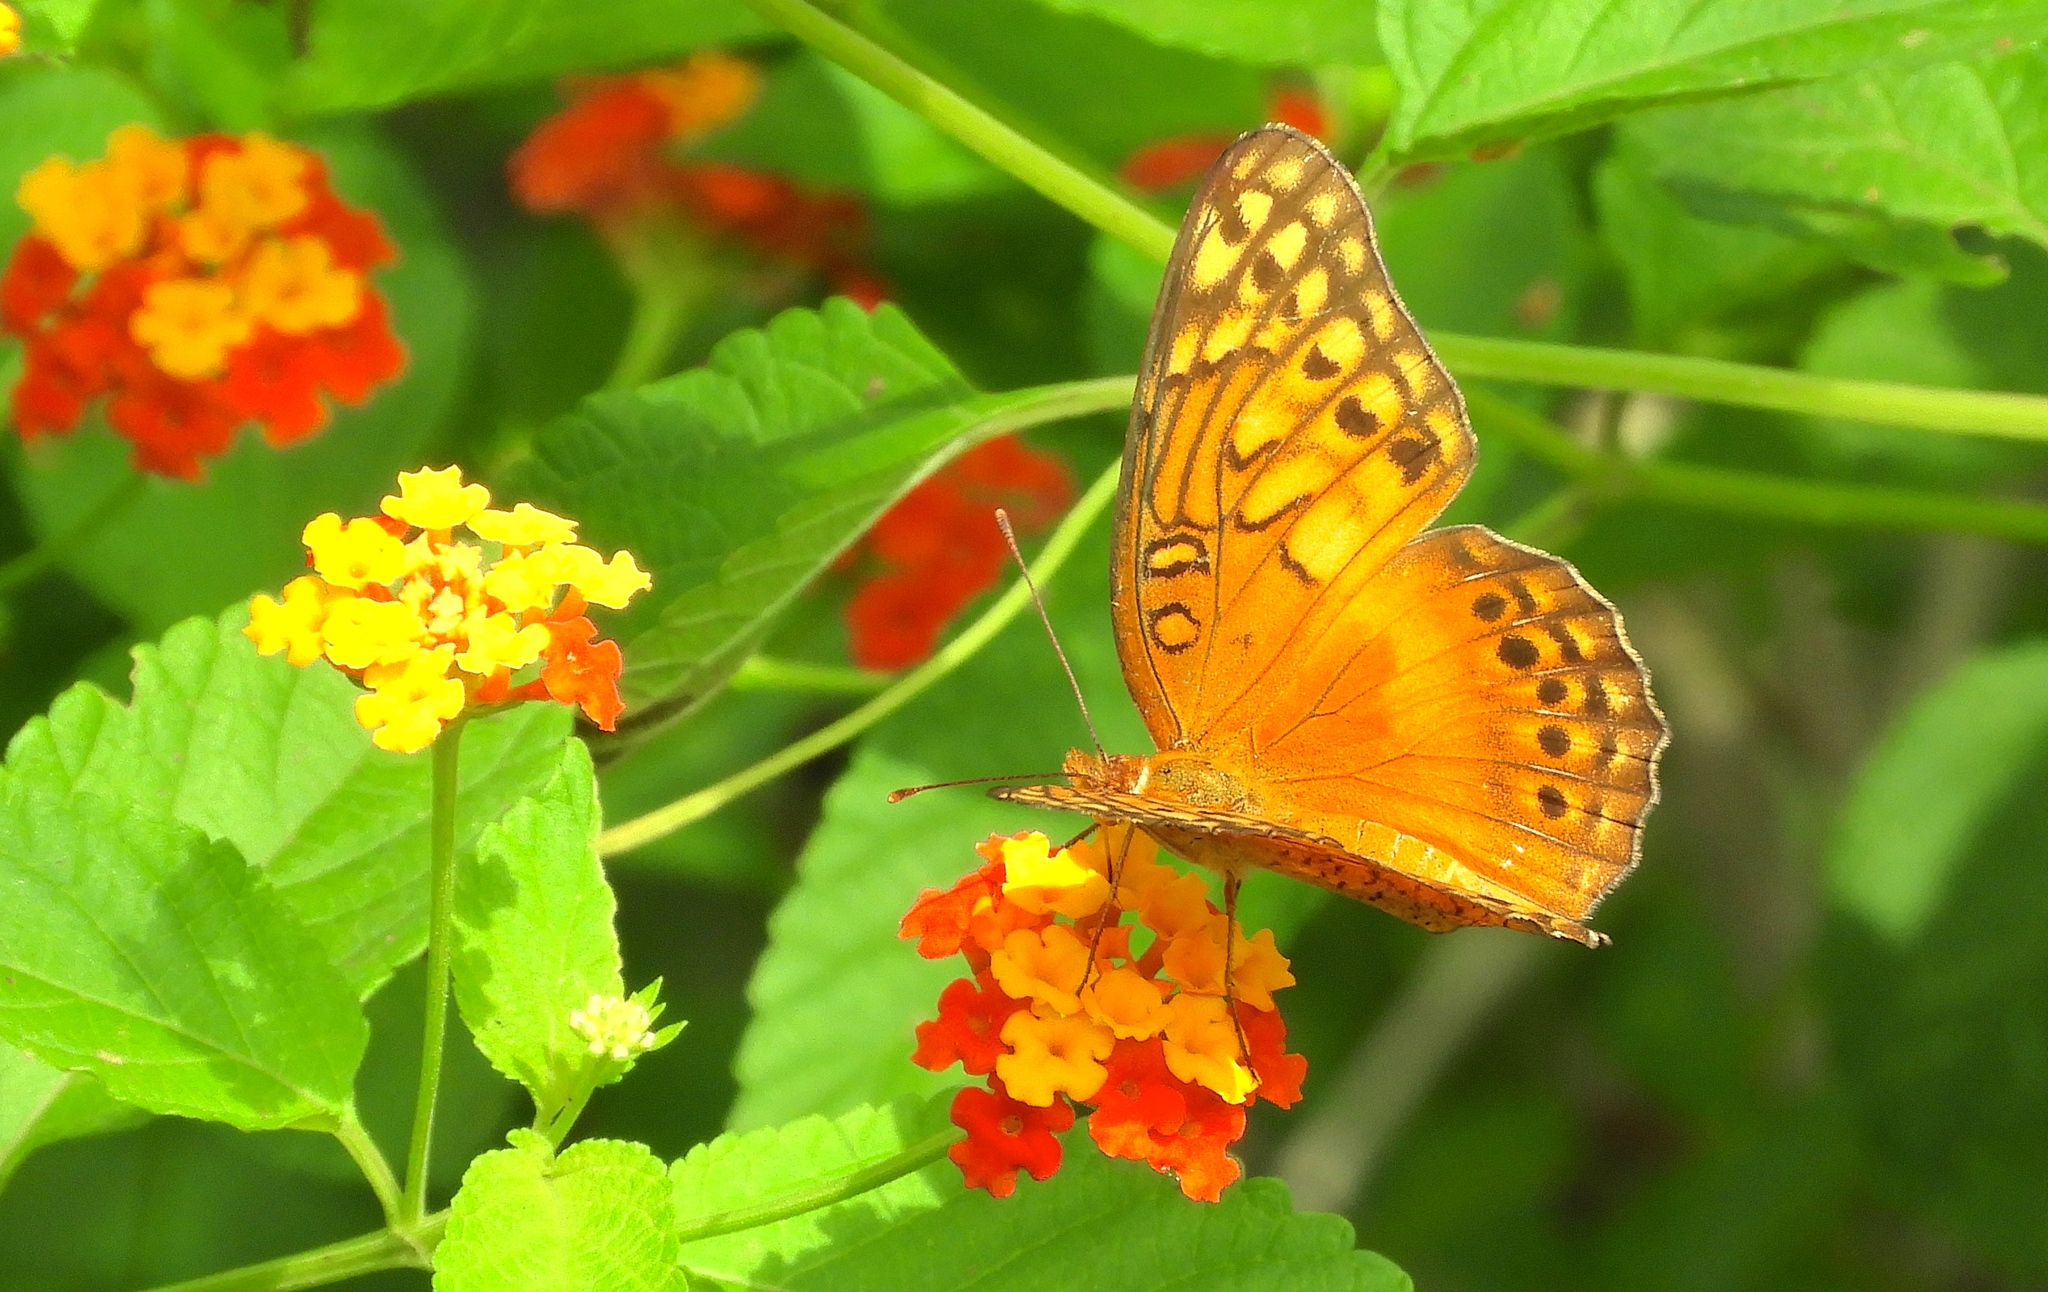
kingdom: Animalia
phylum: Arthropoda
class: Insecta
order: Lepidoptera
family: Nymphalidae
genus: Euptoieta
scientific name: Euptoieta hegesia
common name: Mexican fritillary
